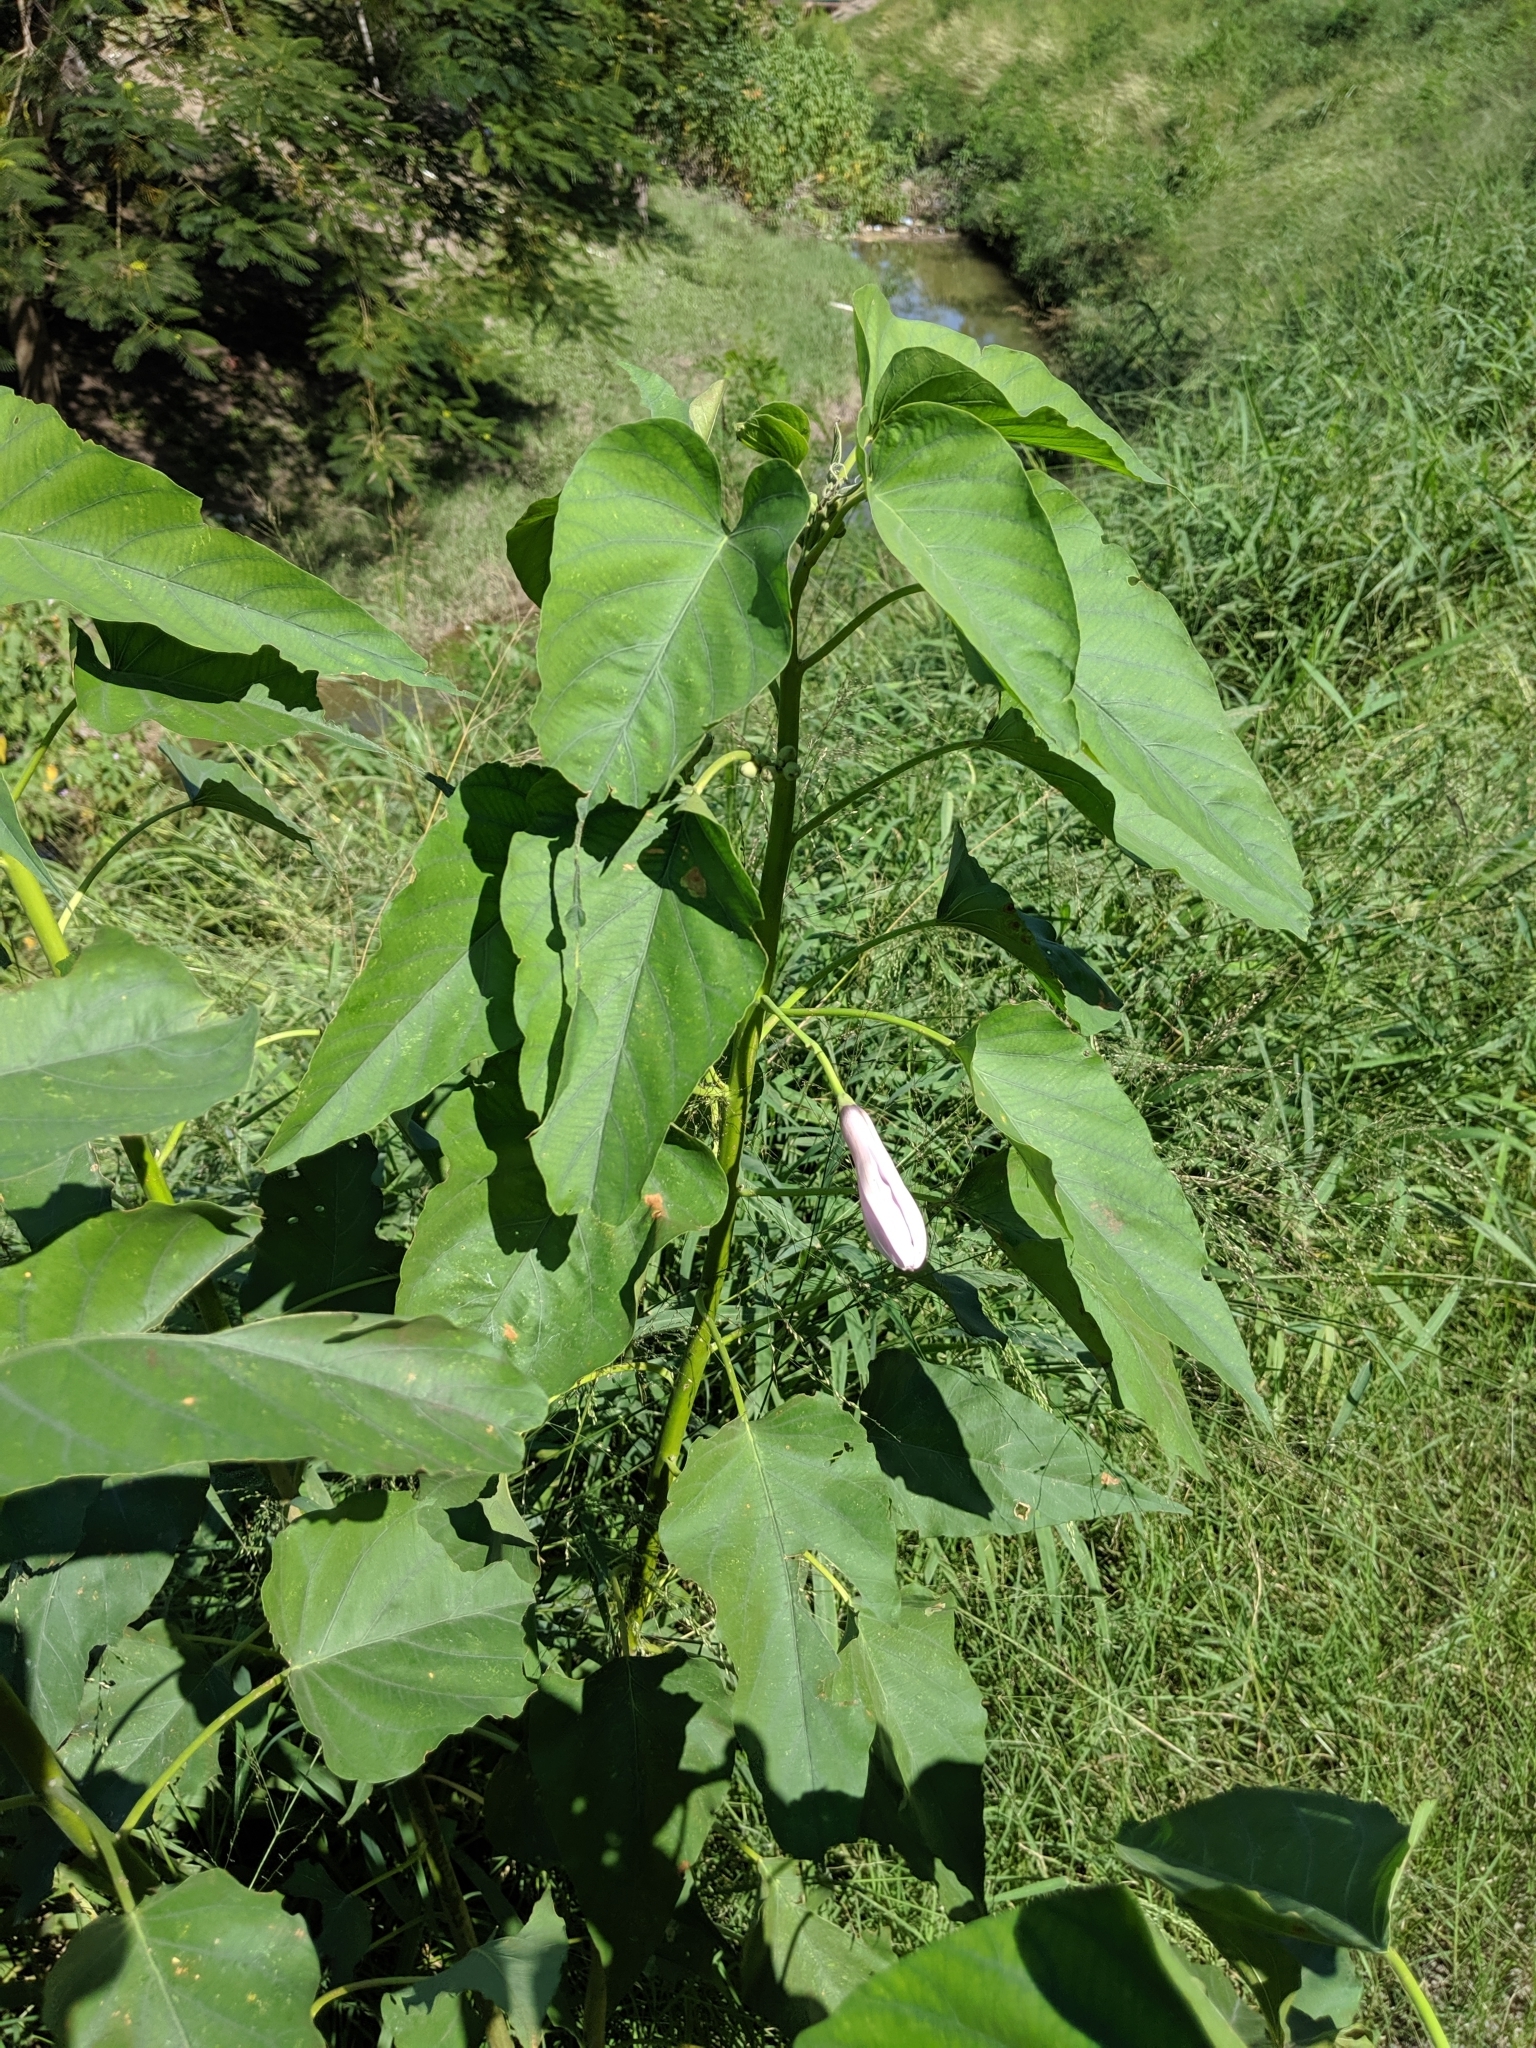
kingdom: Plantae
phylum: Tracheophyta
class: Magnoliopsida
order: Solanales
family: Convolvulaceae
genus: Ipomoea
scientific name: Ipomoea carnea
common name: Morning-glory
